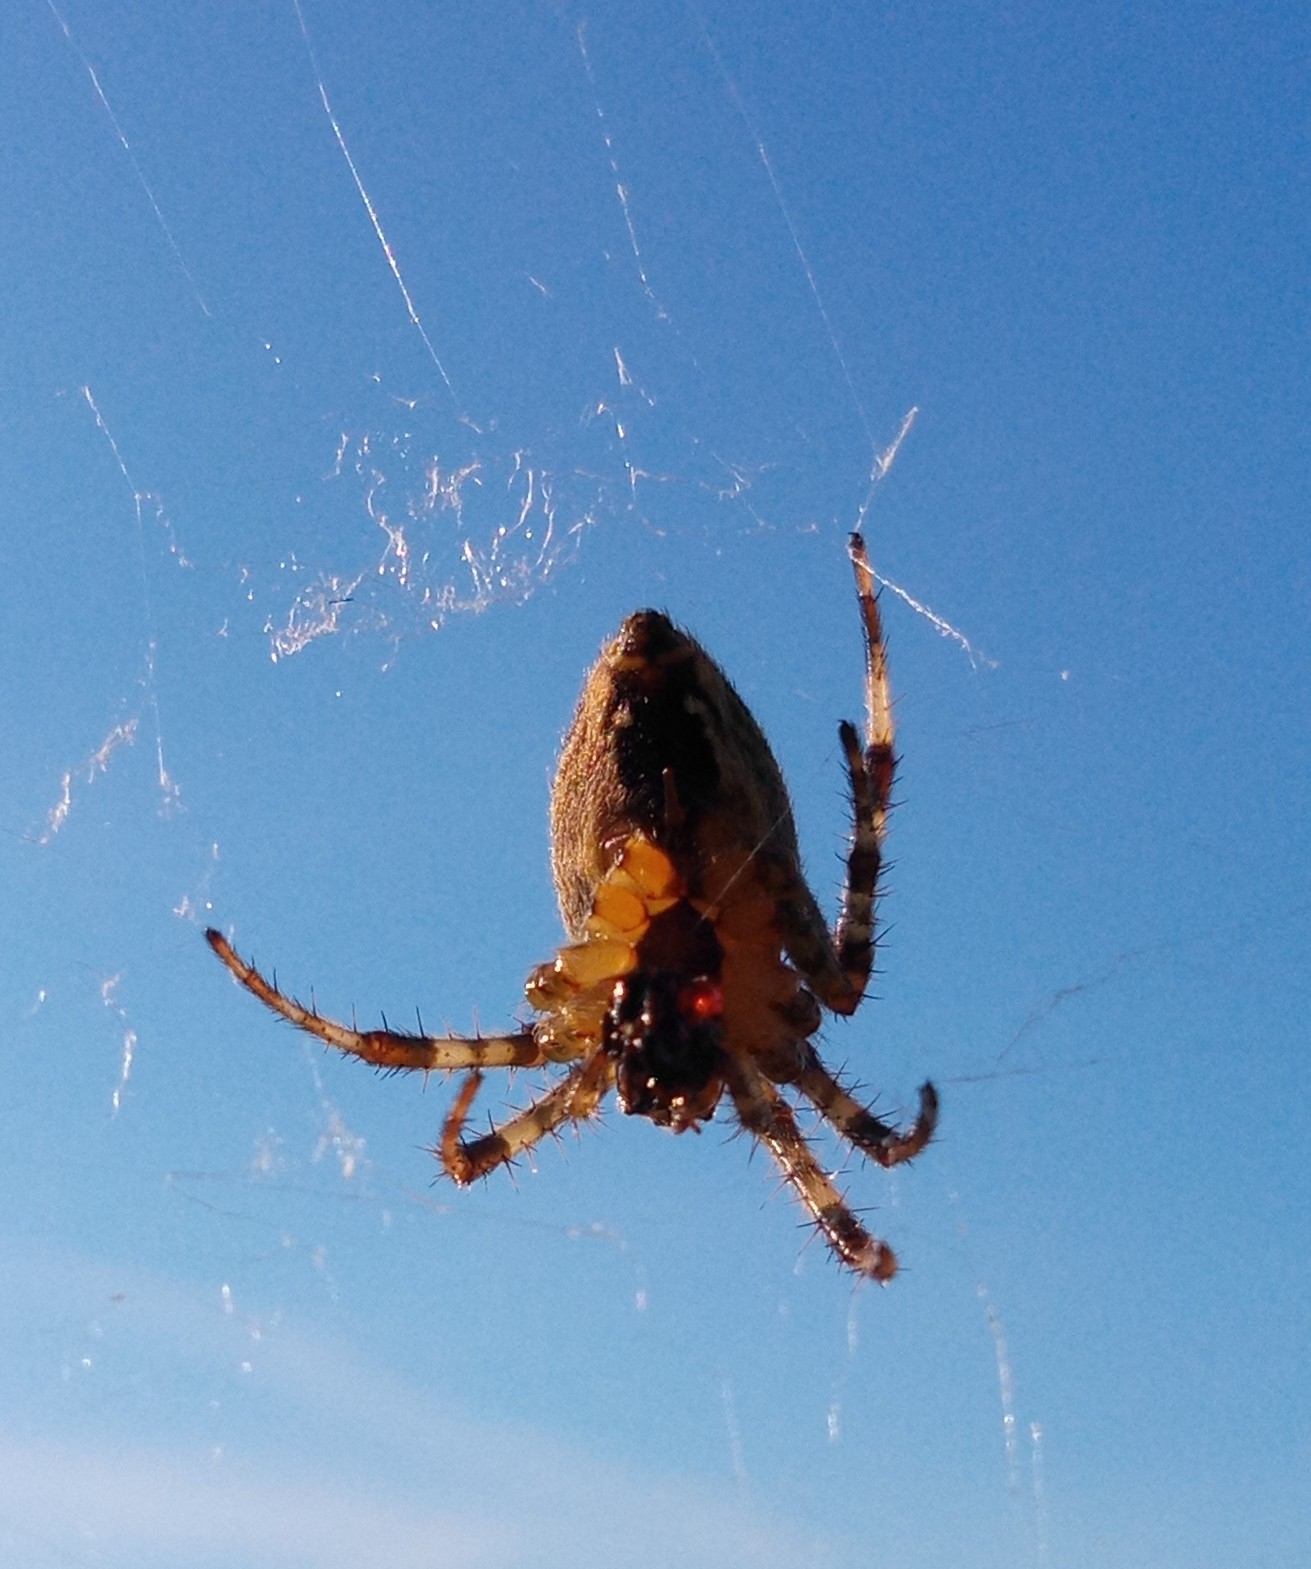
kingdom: Animalia
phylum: Arthropoda
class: Arachnida
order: Araneae
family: Araneidae
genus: Araneus
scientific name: Araneus diadematus
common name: Cross orbweaver
